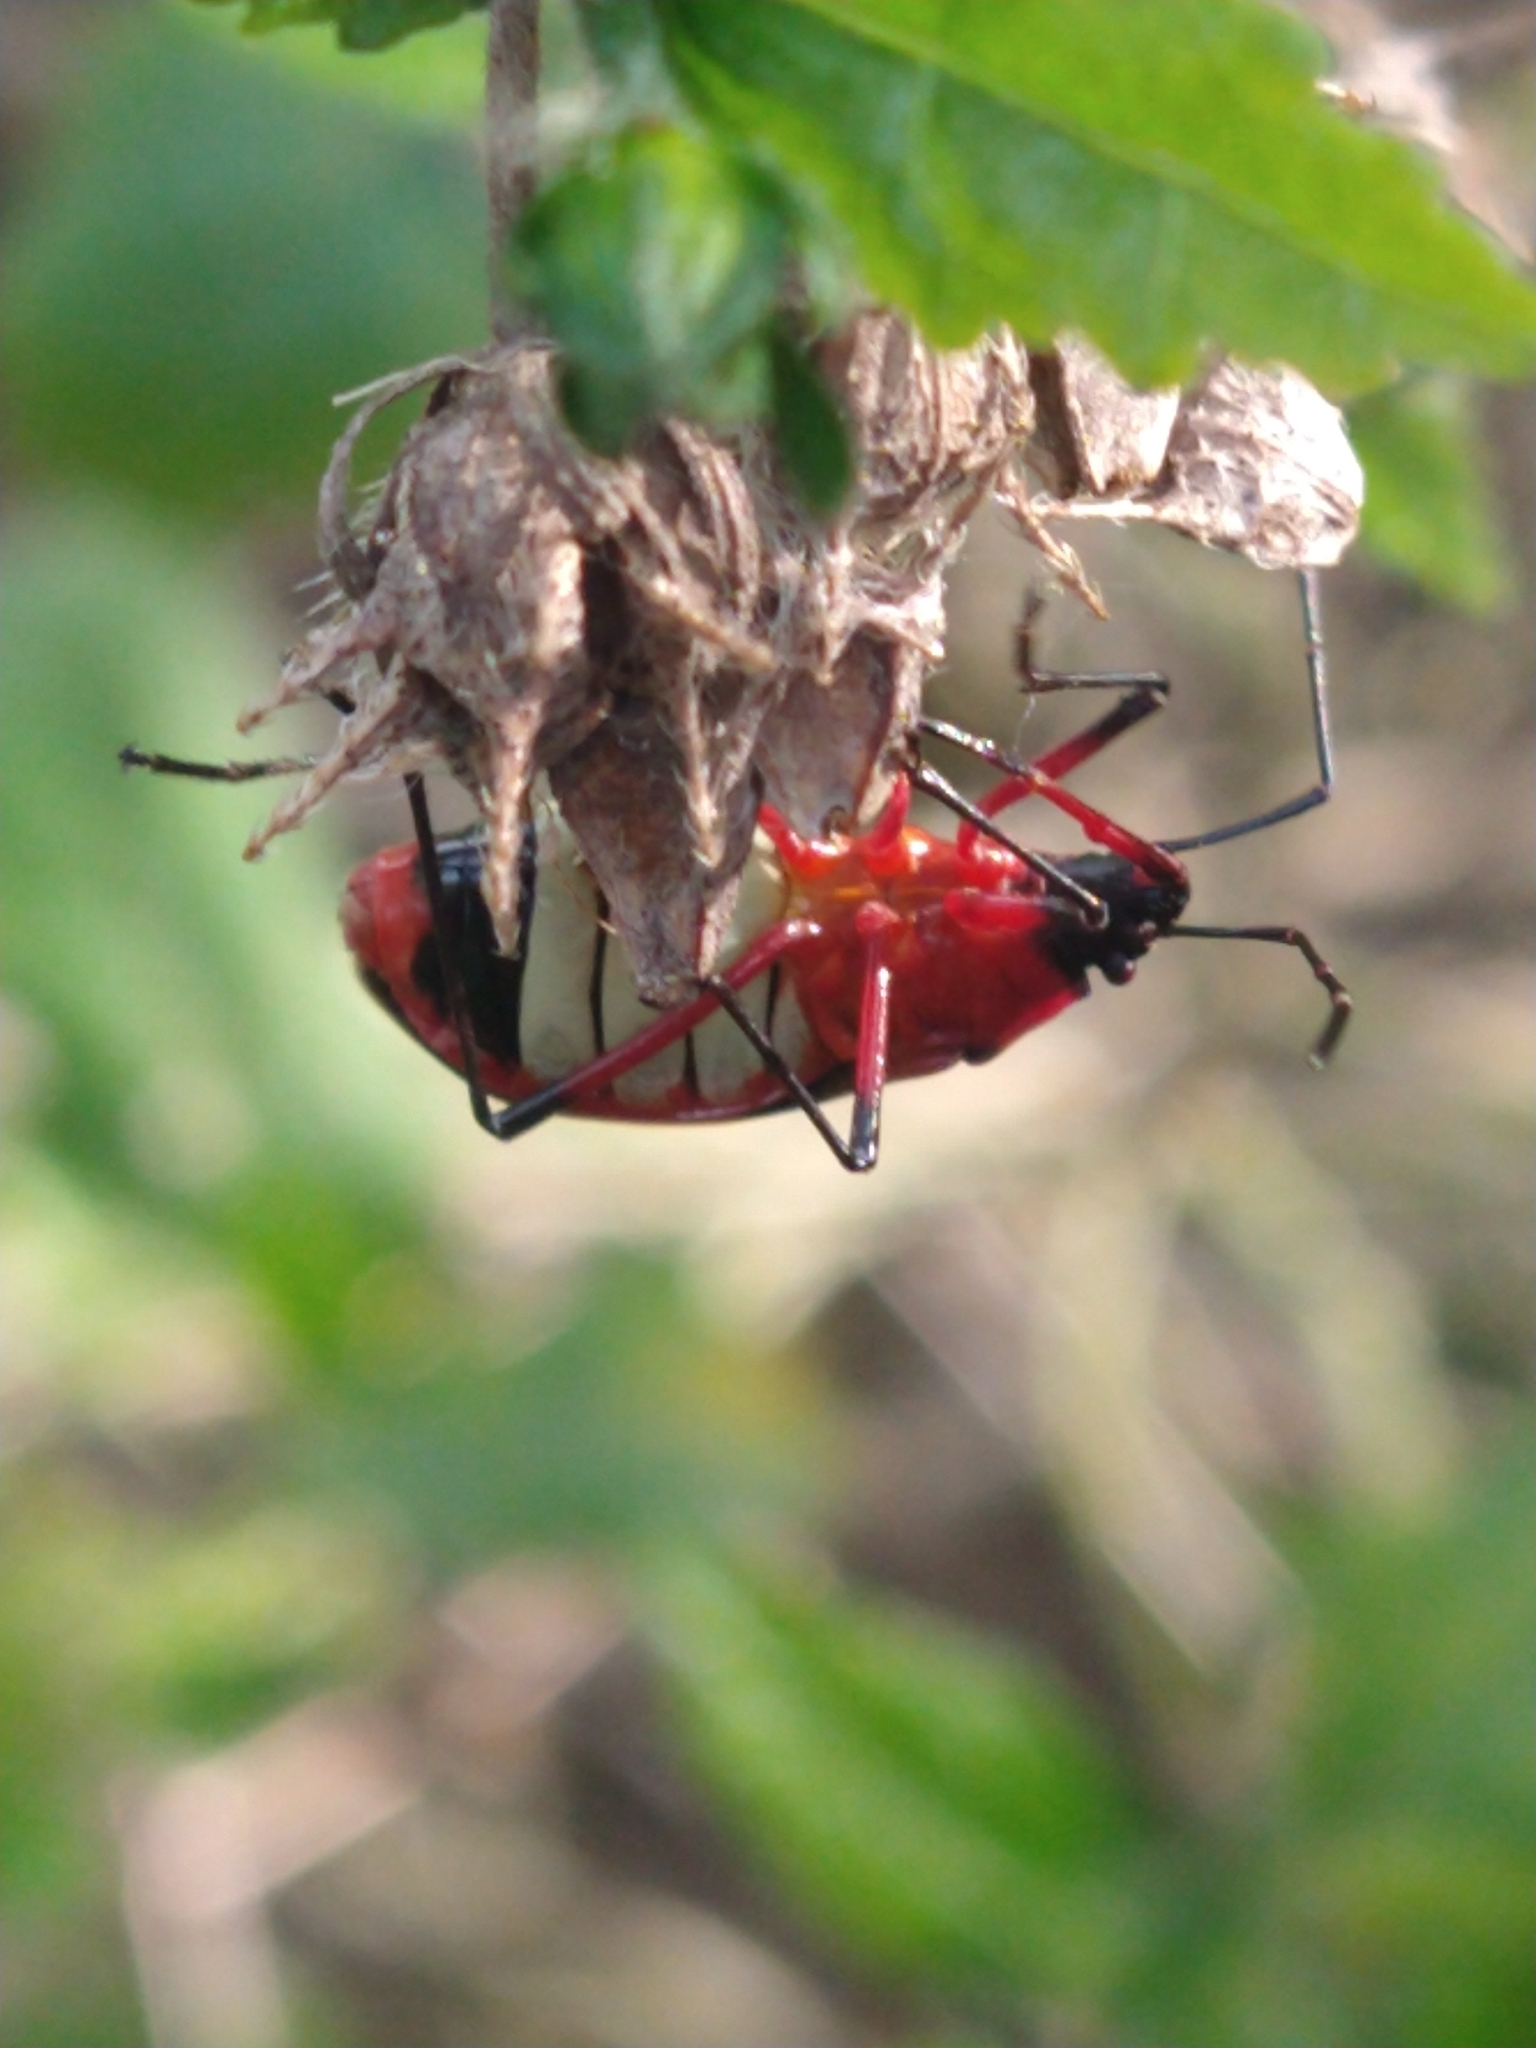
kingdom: Animalia
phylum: Arthropoda
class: Insecta
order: Hemiptera
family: Pyrrhocoridae
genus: Dysdercus
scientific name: Dysdercus albofasciatus
